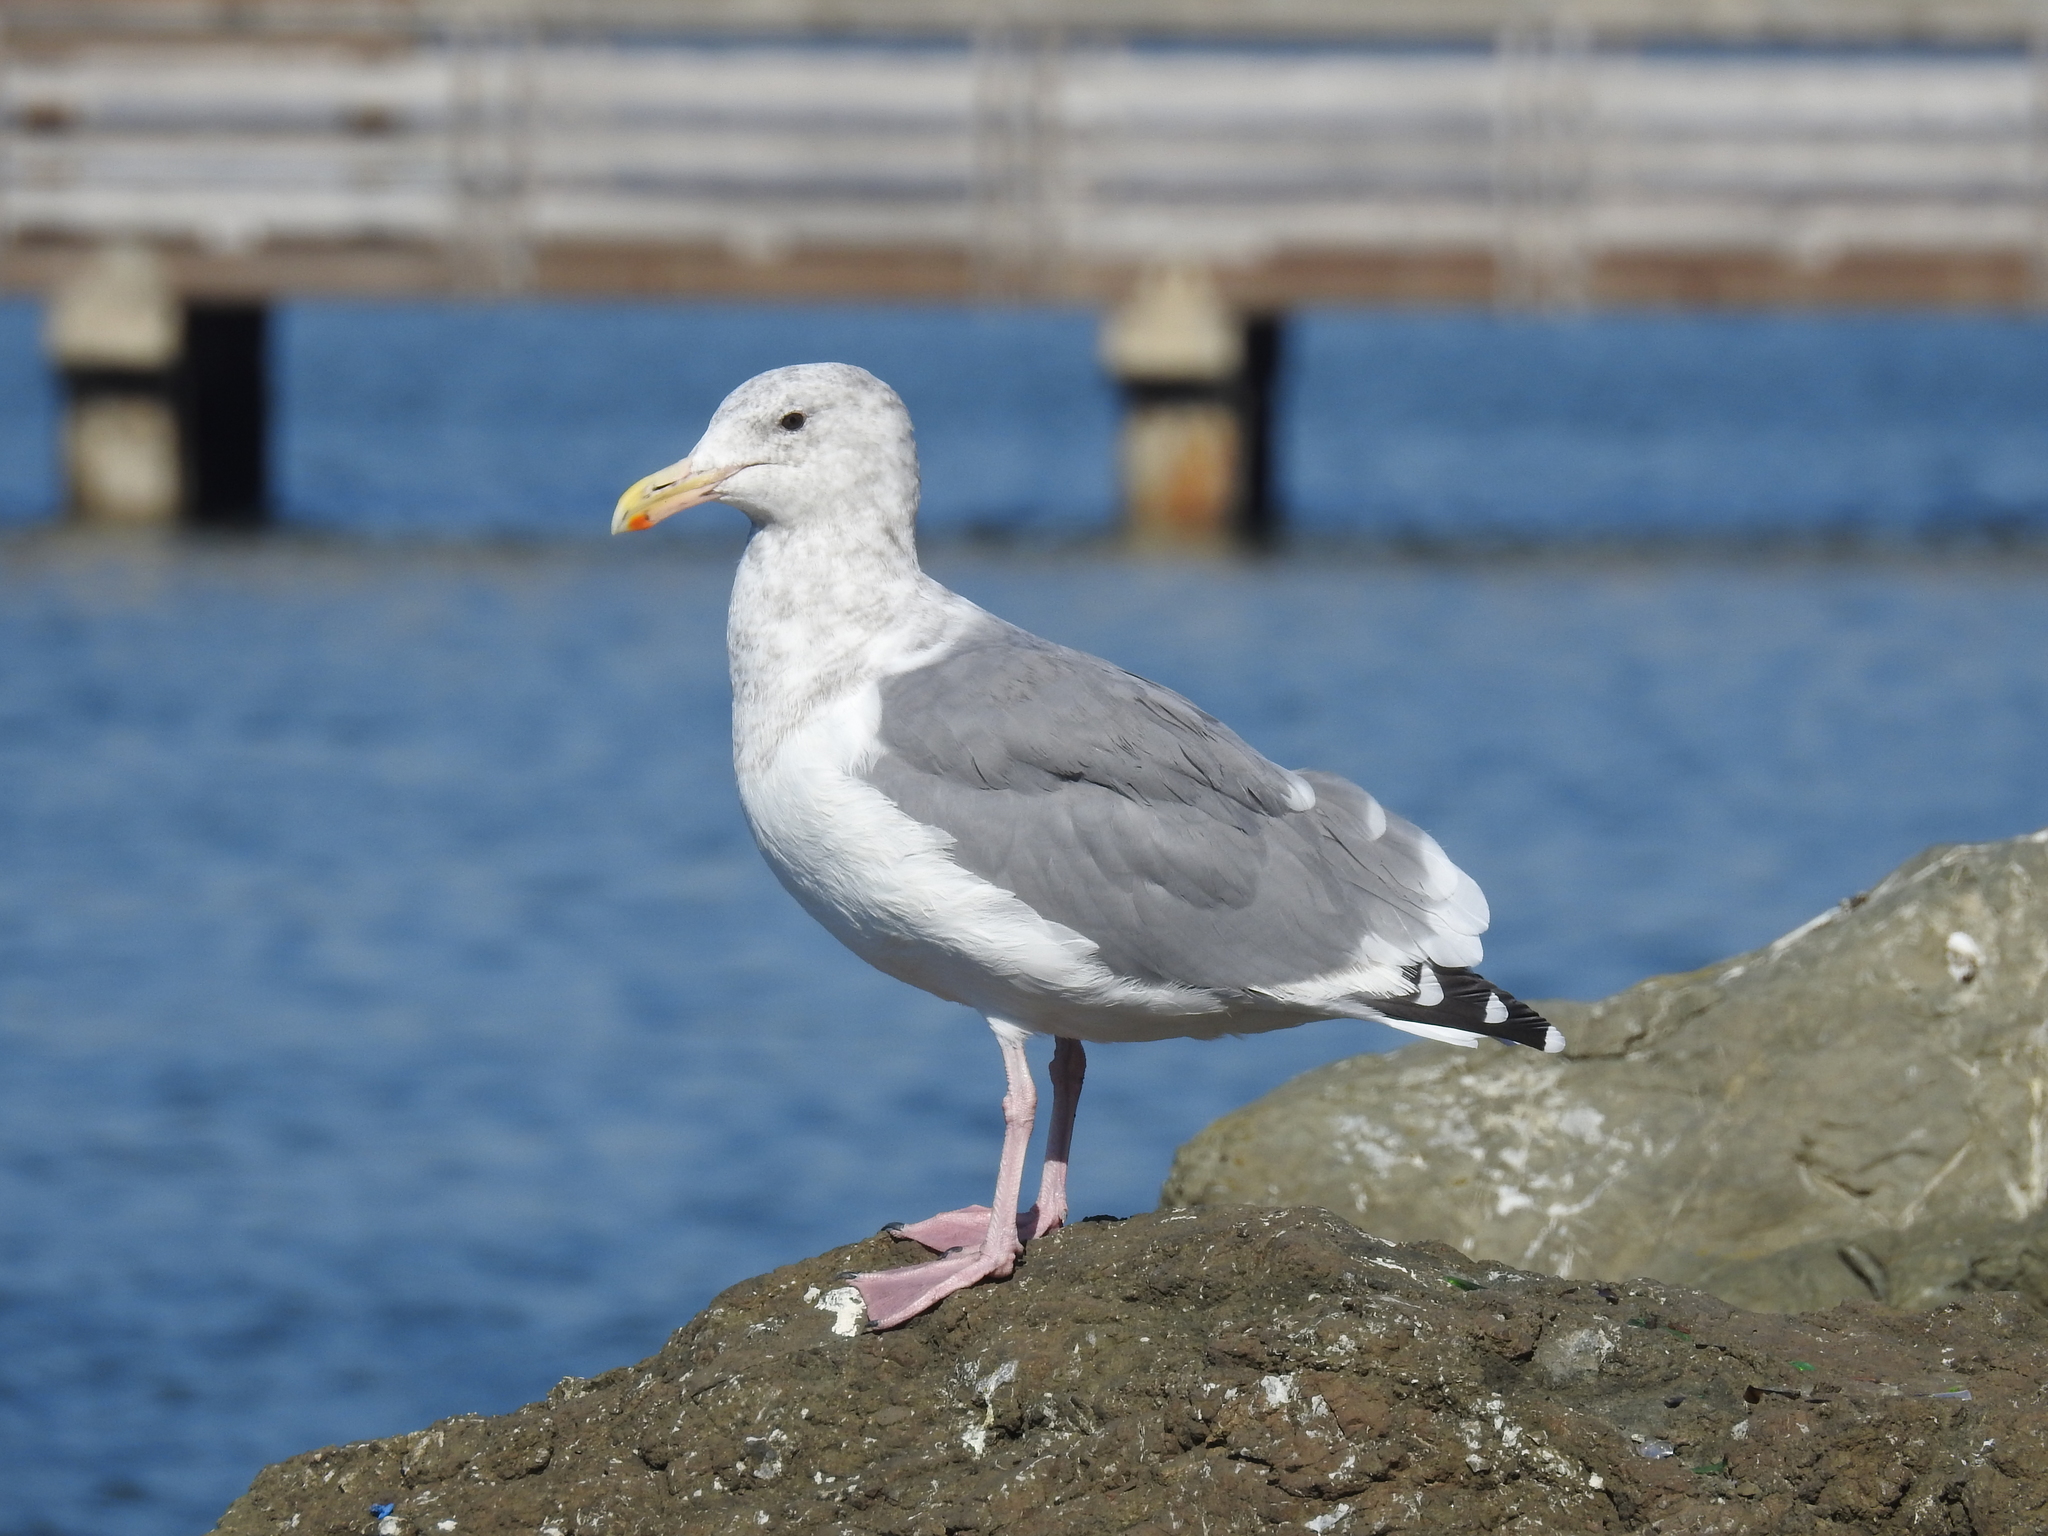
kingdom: Animalia
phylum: Chordata
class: Aves
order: Charadriiformes
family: Laridae
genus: Larus
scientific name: Larus
